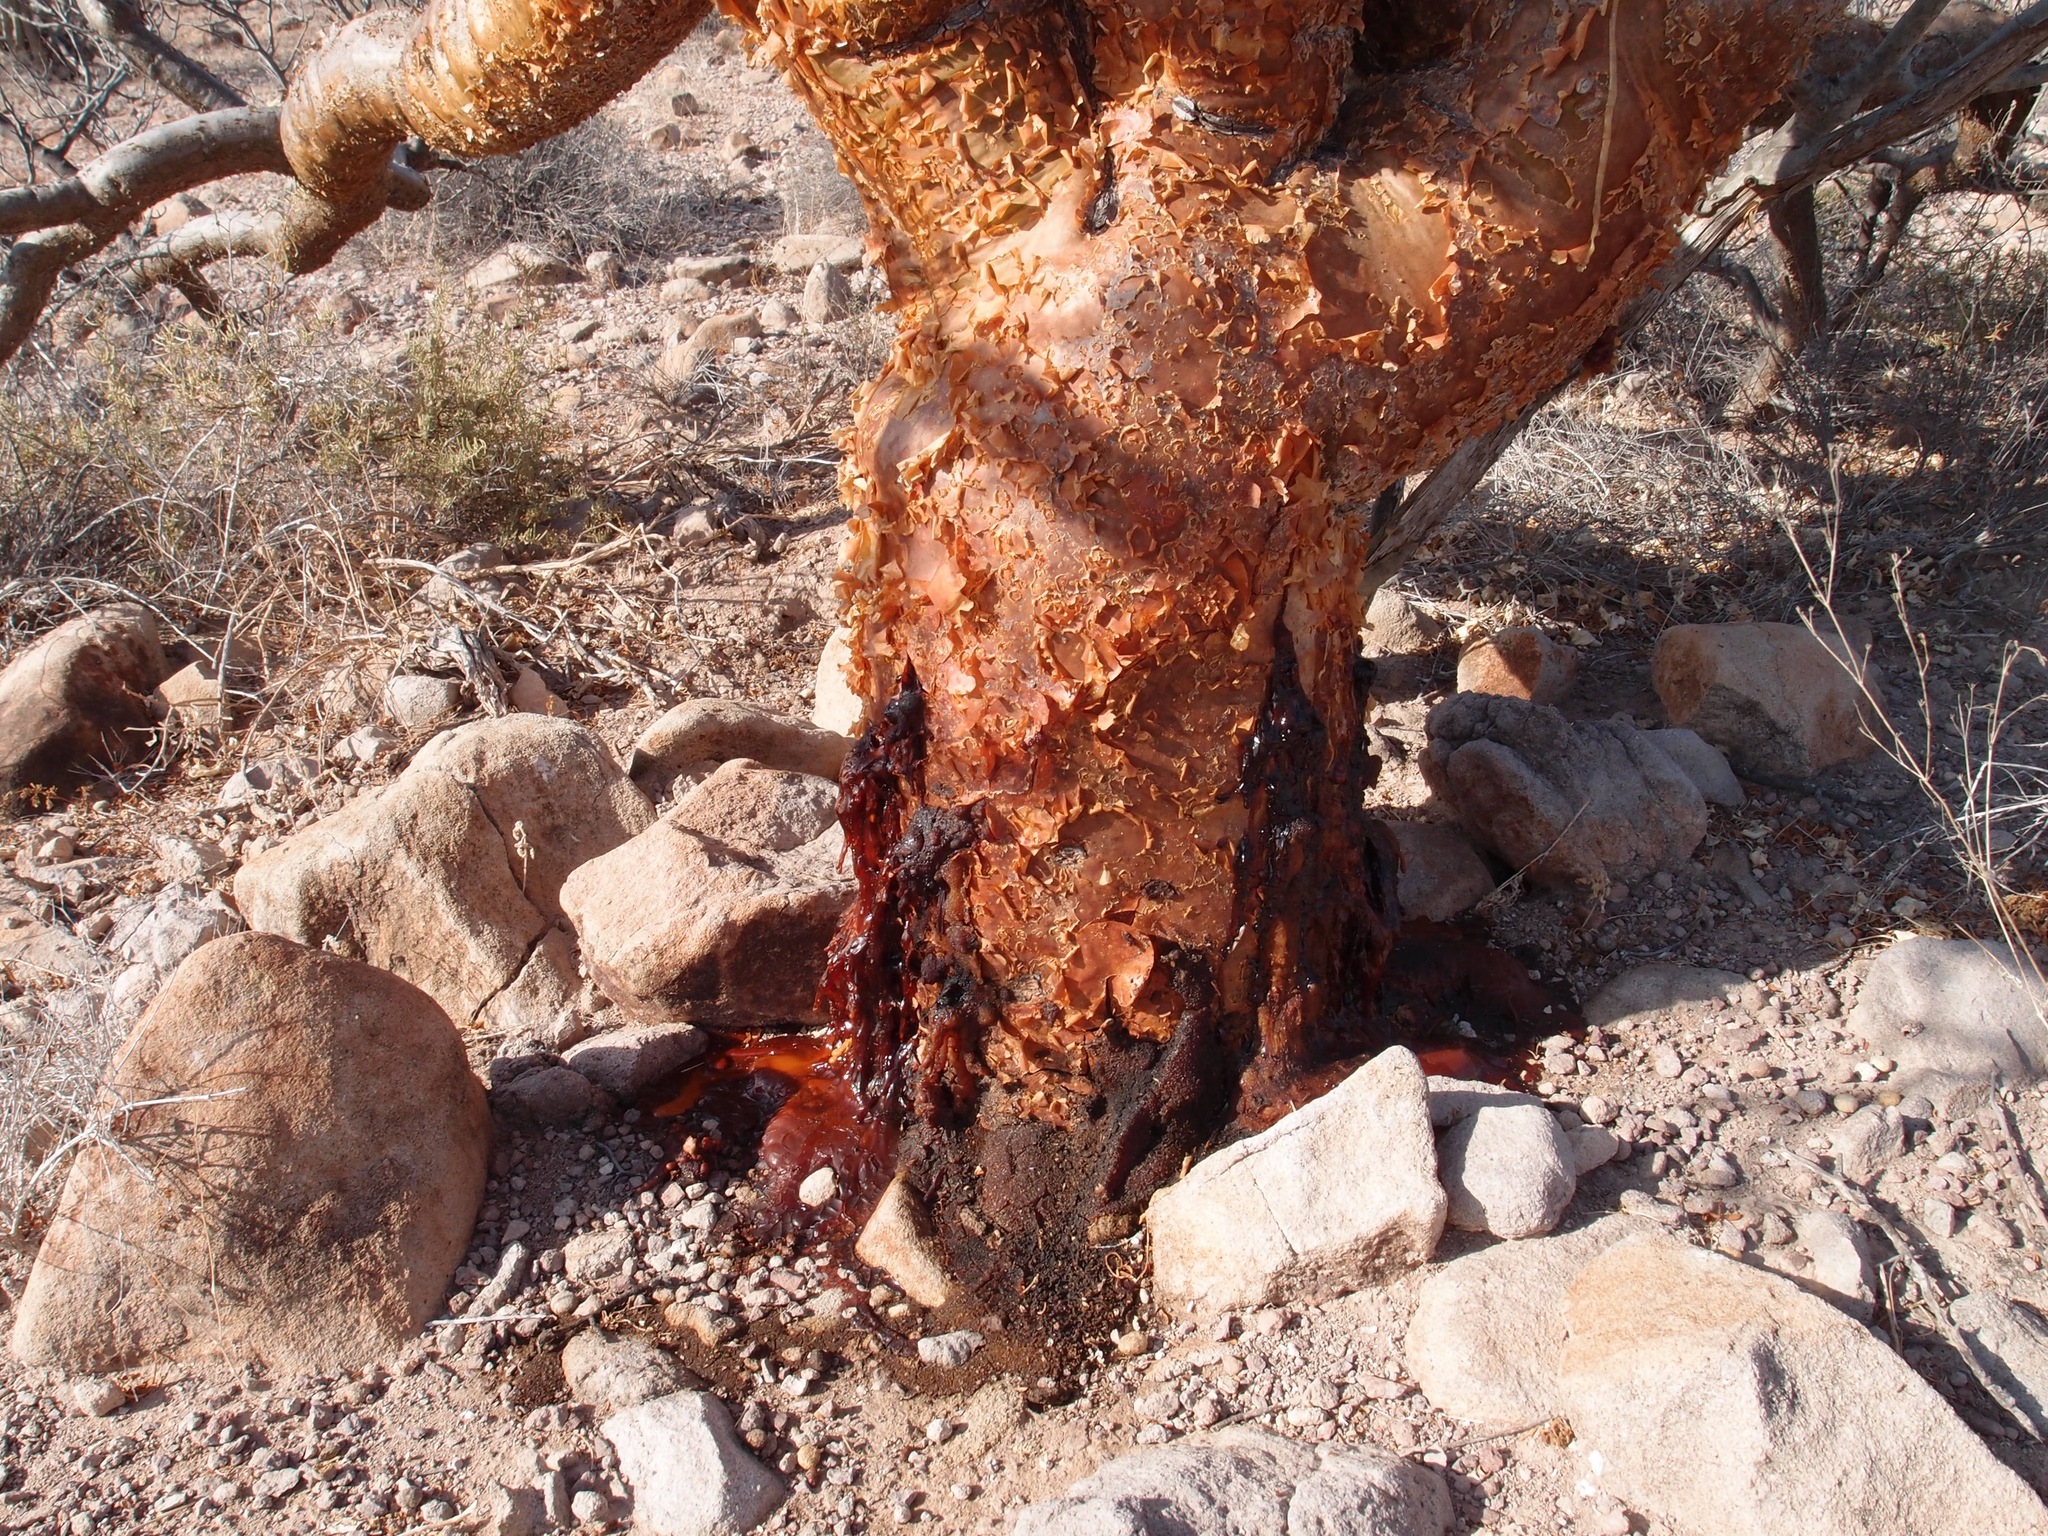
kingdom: Plantae
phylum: Tracheophyta
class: Magnoliopsida
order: Sapindales
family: Burseraceae
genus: Bursera
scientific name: Bursera microphylla
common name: Elephant tree
